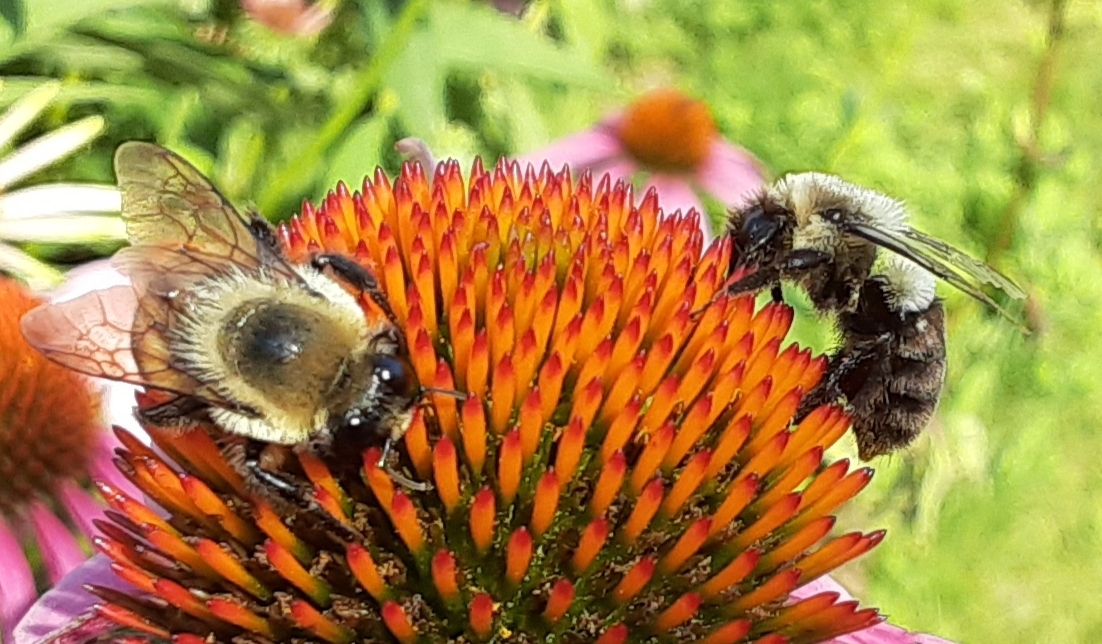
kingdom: Animalia
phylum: Arthropoda
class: Insecta
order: Hymenoptera
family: Apidae
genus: Bombus
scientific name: Bombus griseocollis
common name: Brown-belted bumble bee
